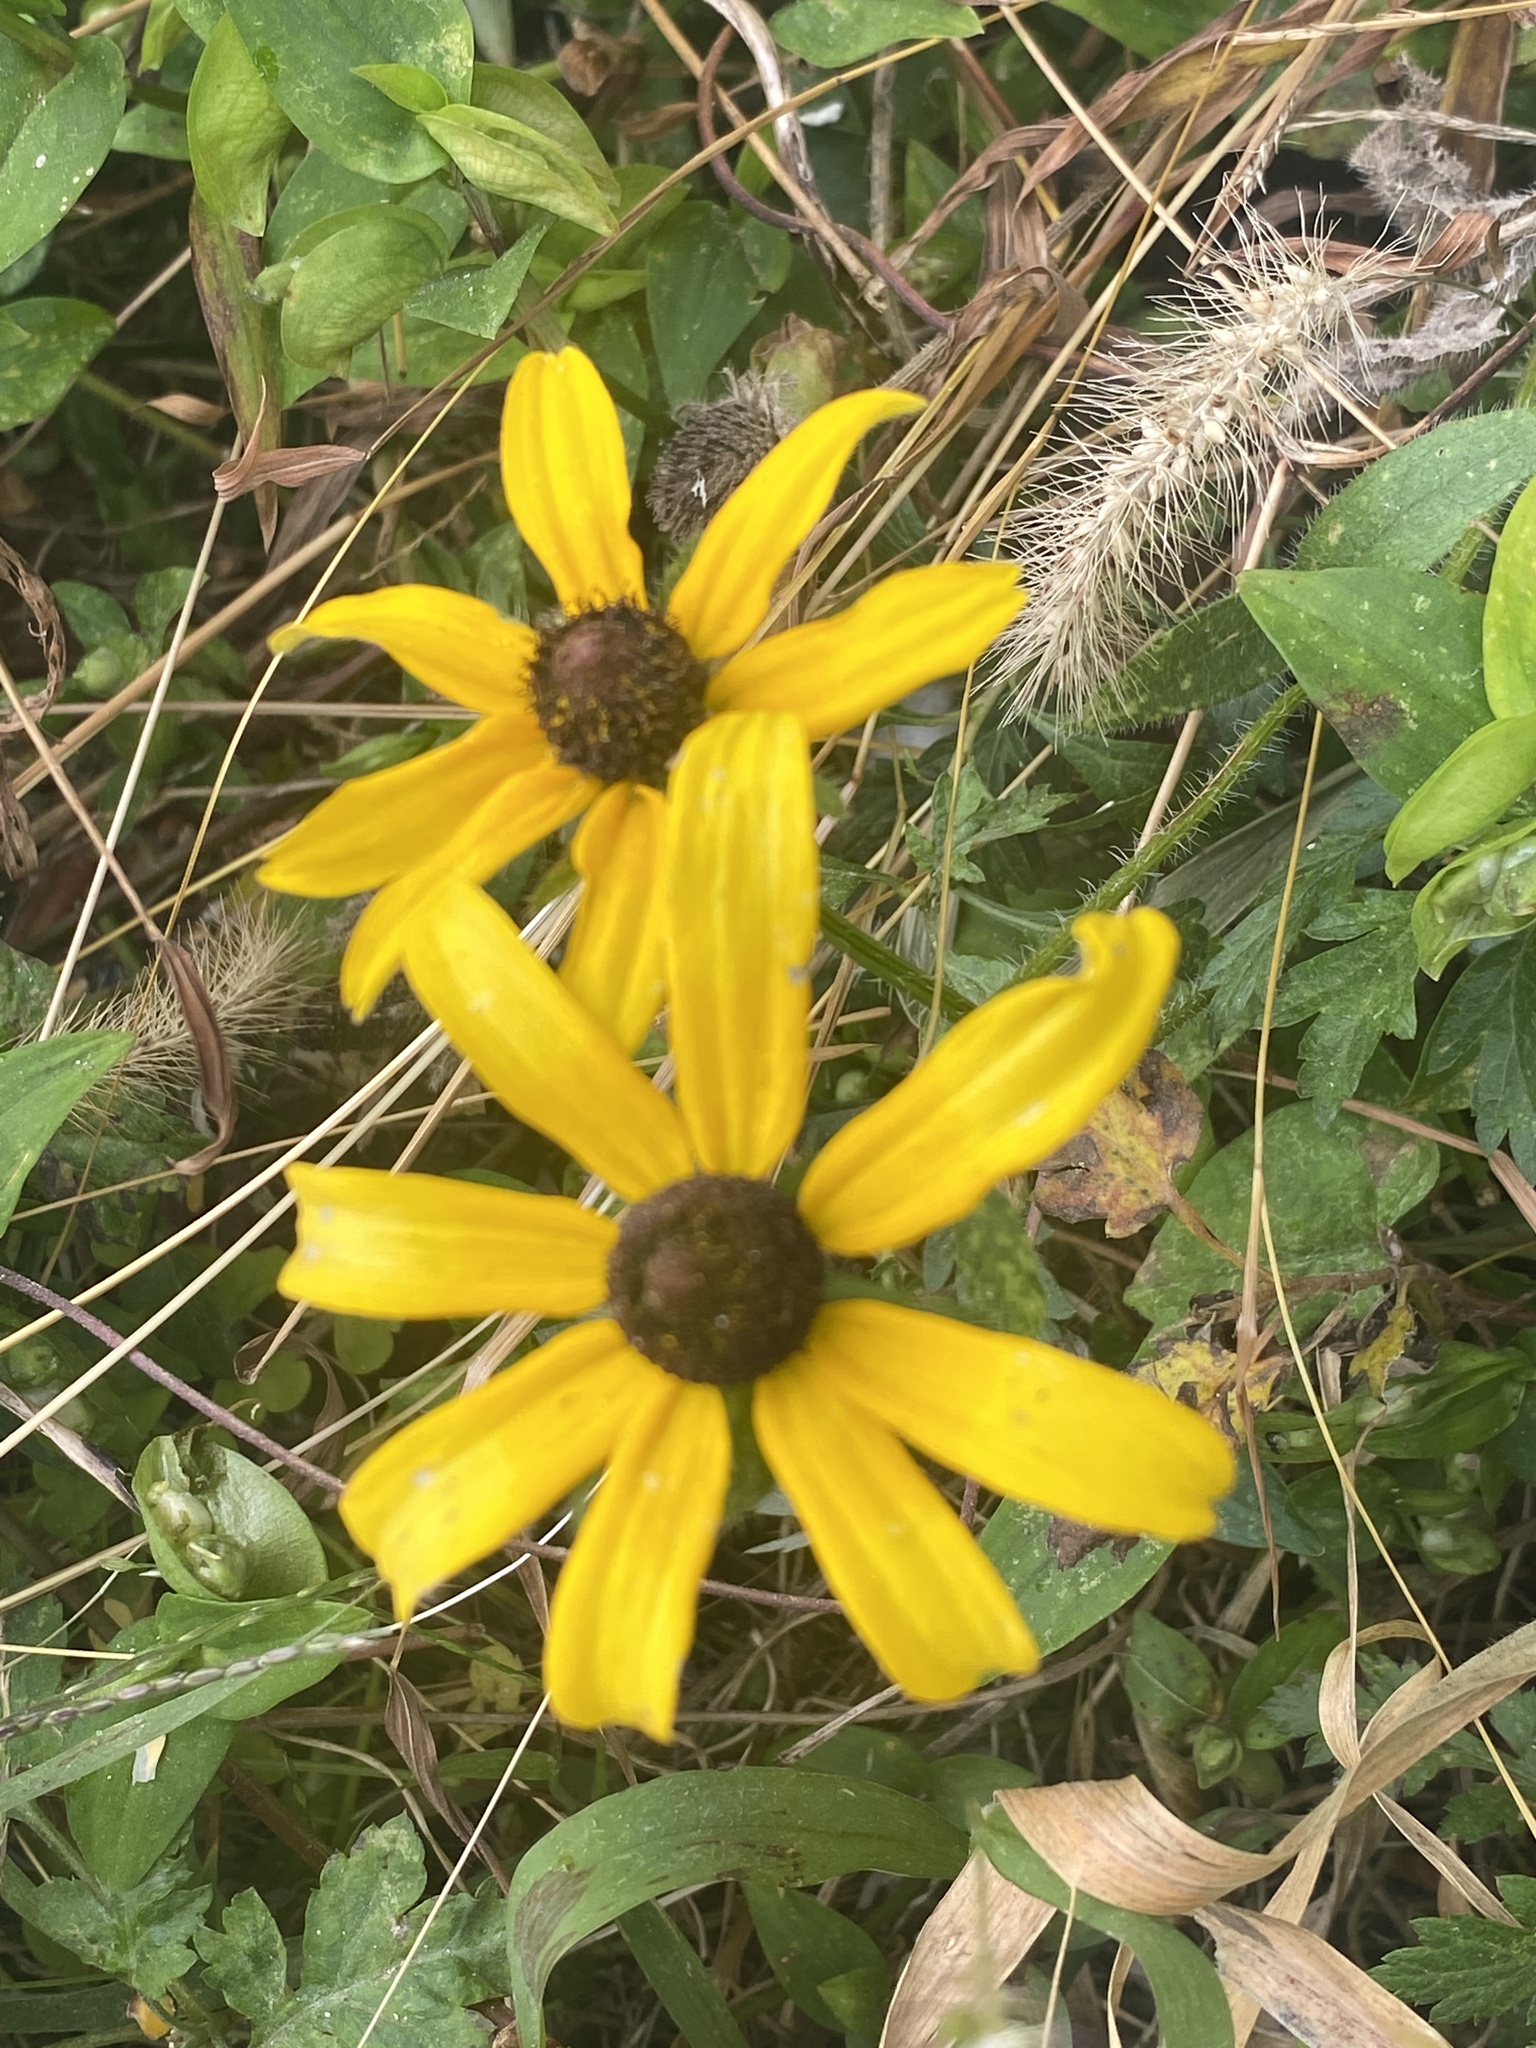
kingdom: Plantae
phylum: Tracheophyta
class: Magnoliopsida
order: Asterales
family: Asteraceae
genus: Rudbeckia
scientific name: Rudbeckia hirta
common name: Black-eyed-susan
